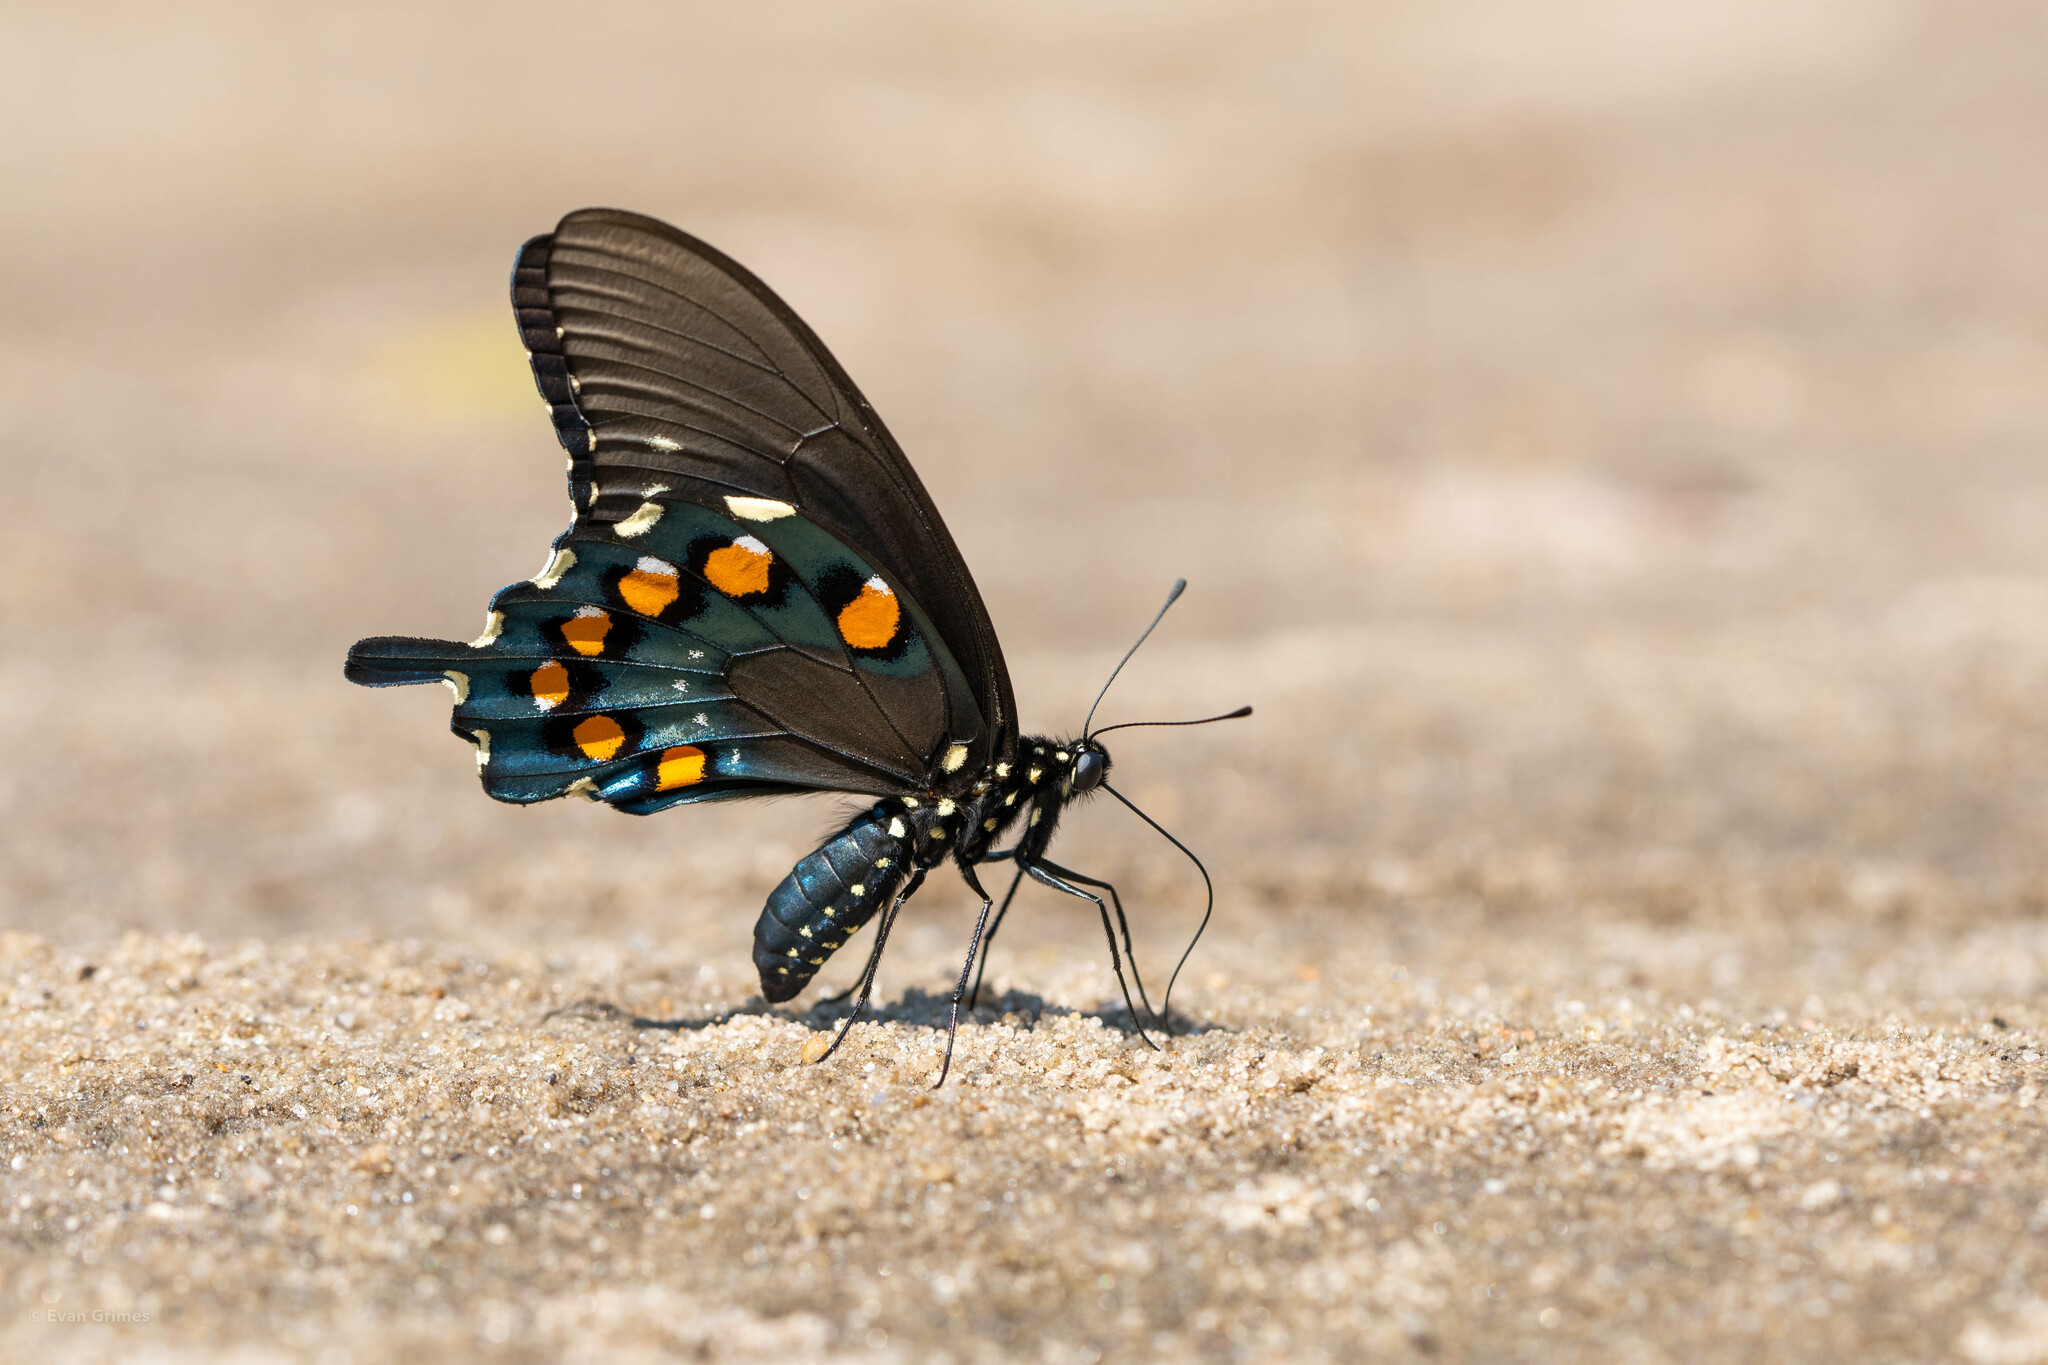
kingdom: Animalia
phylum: Arthropoda
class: Insecta
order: Lepidoptera
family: Papilionidae
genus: Battus
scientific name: Battus philenor
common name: Pipevine swallowtail
